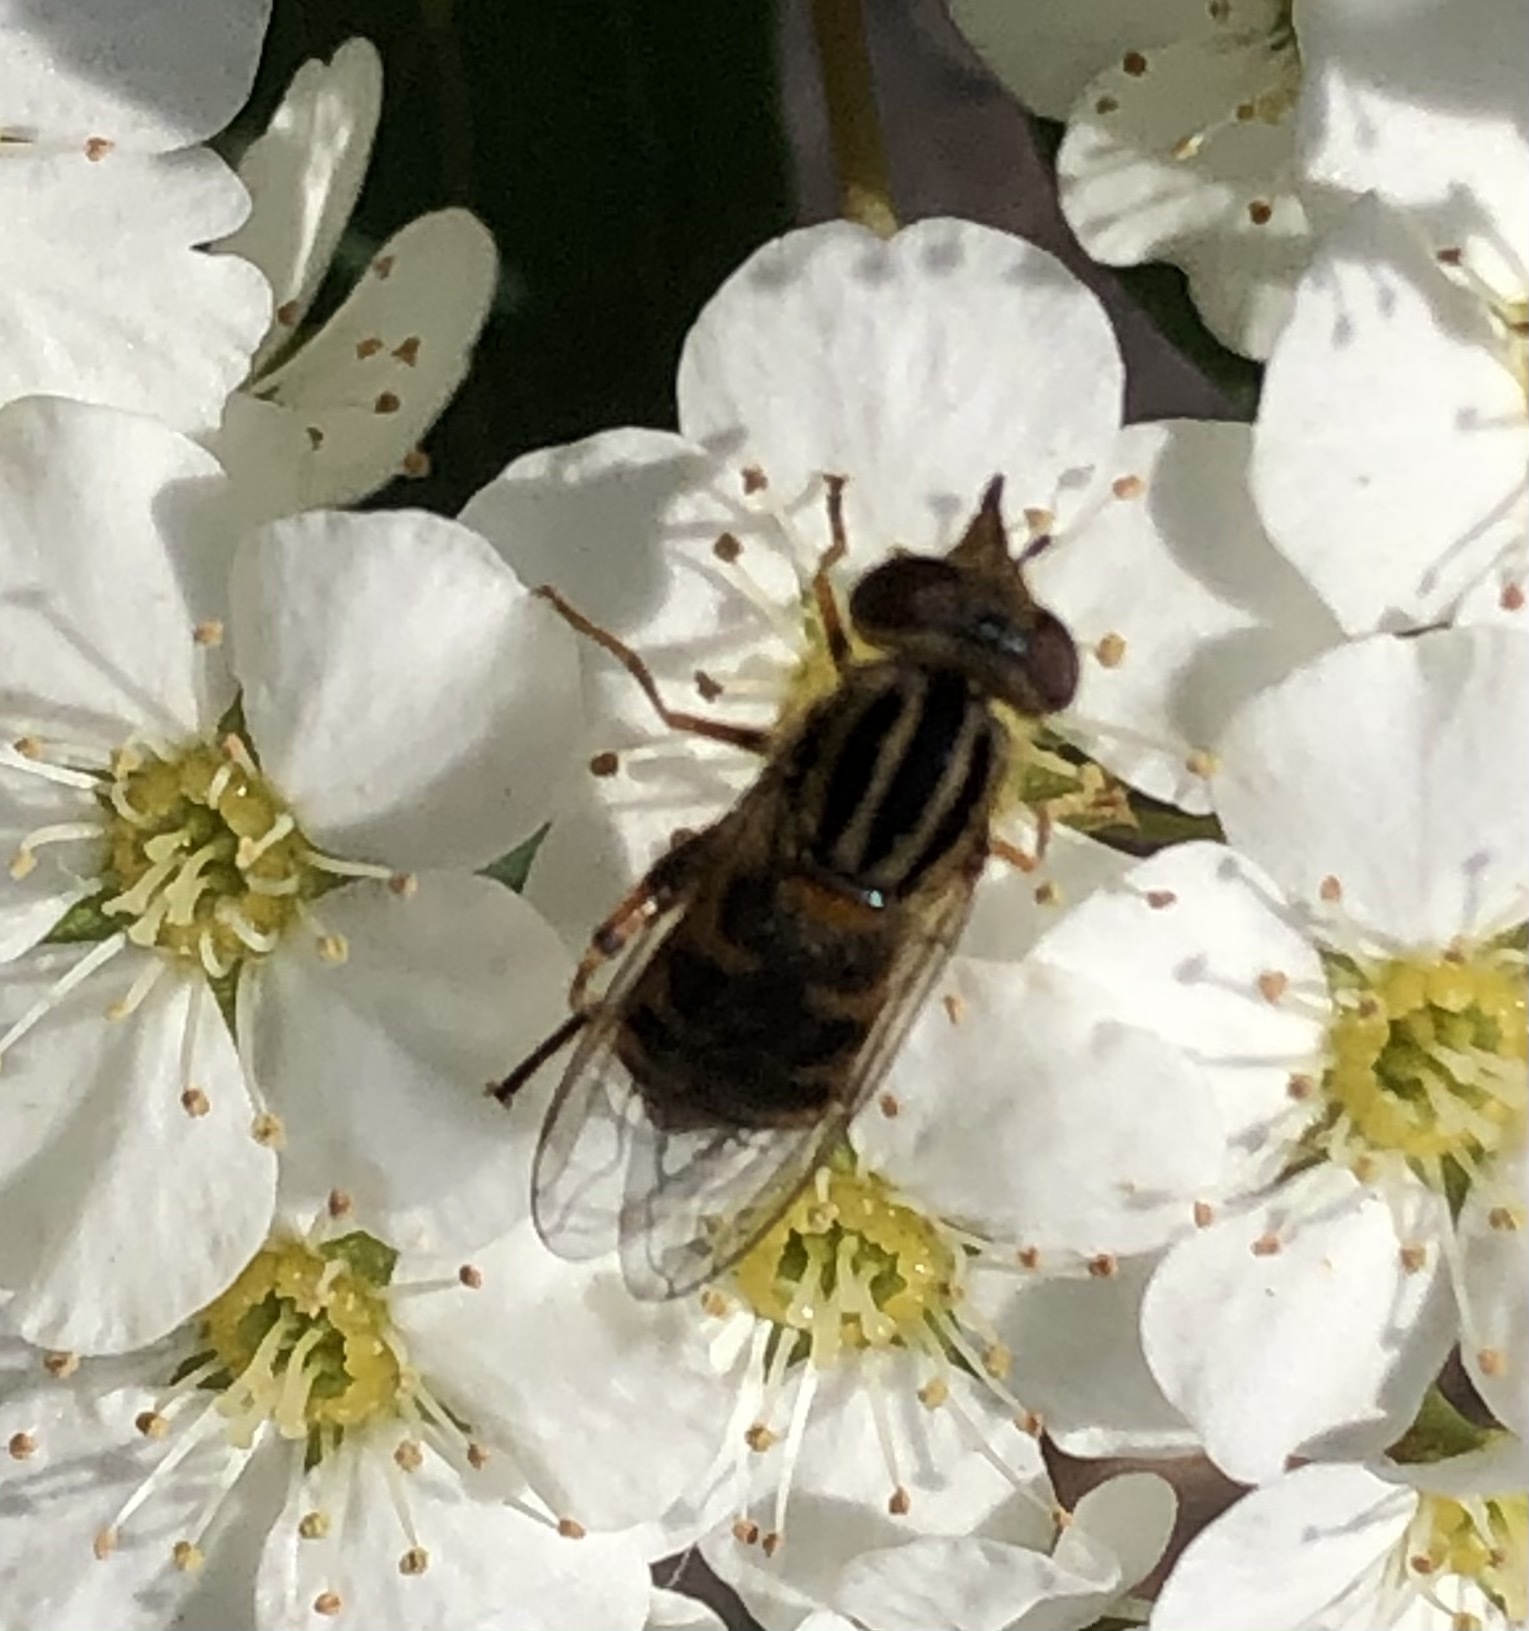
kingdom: Animalia
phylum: Arthropoda
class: Insecta
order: Diptera
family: Syrphidae
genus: Eurimyia
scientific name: Eurimyia stipatus
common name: Long-nosed swamp fly
